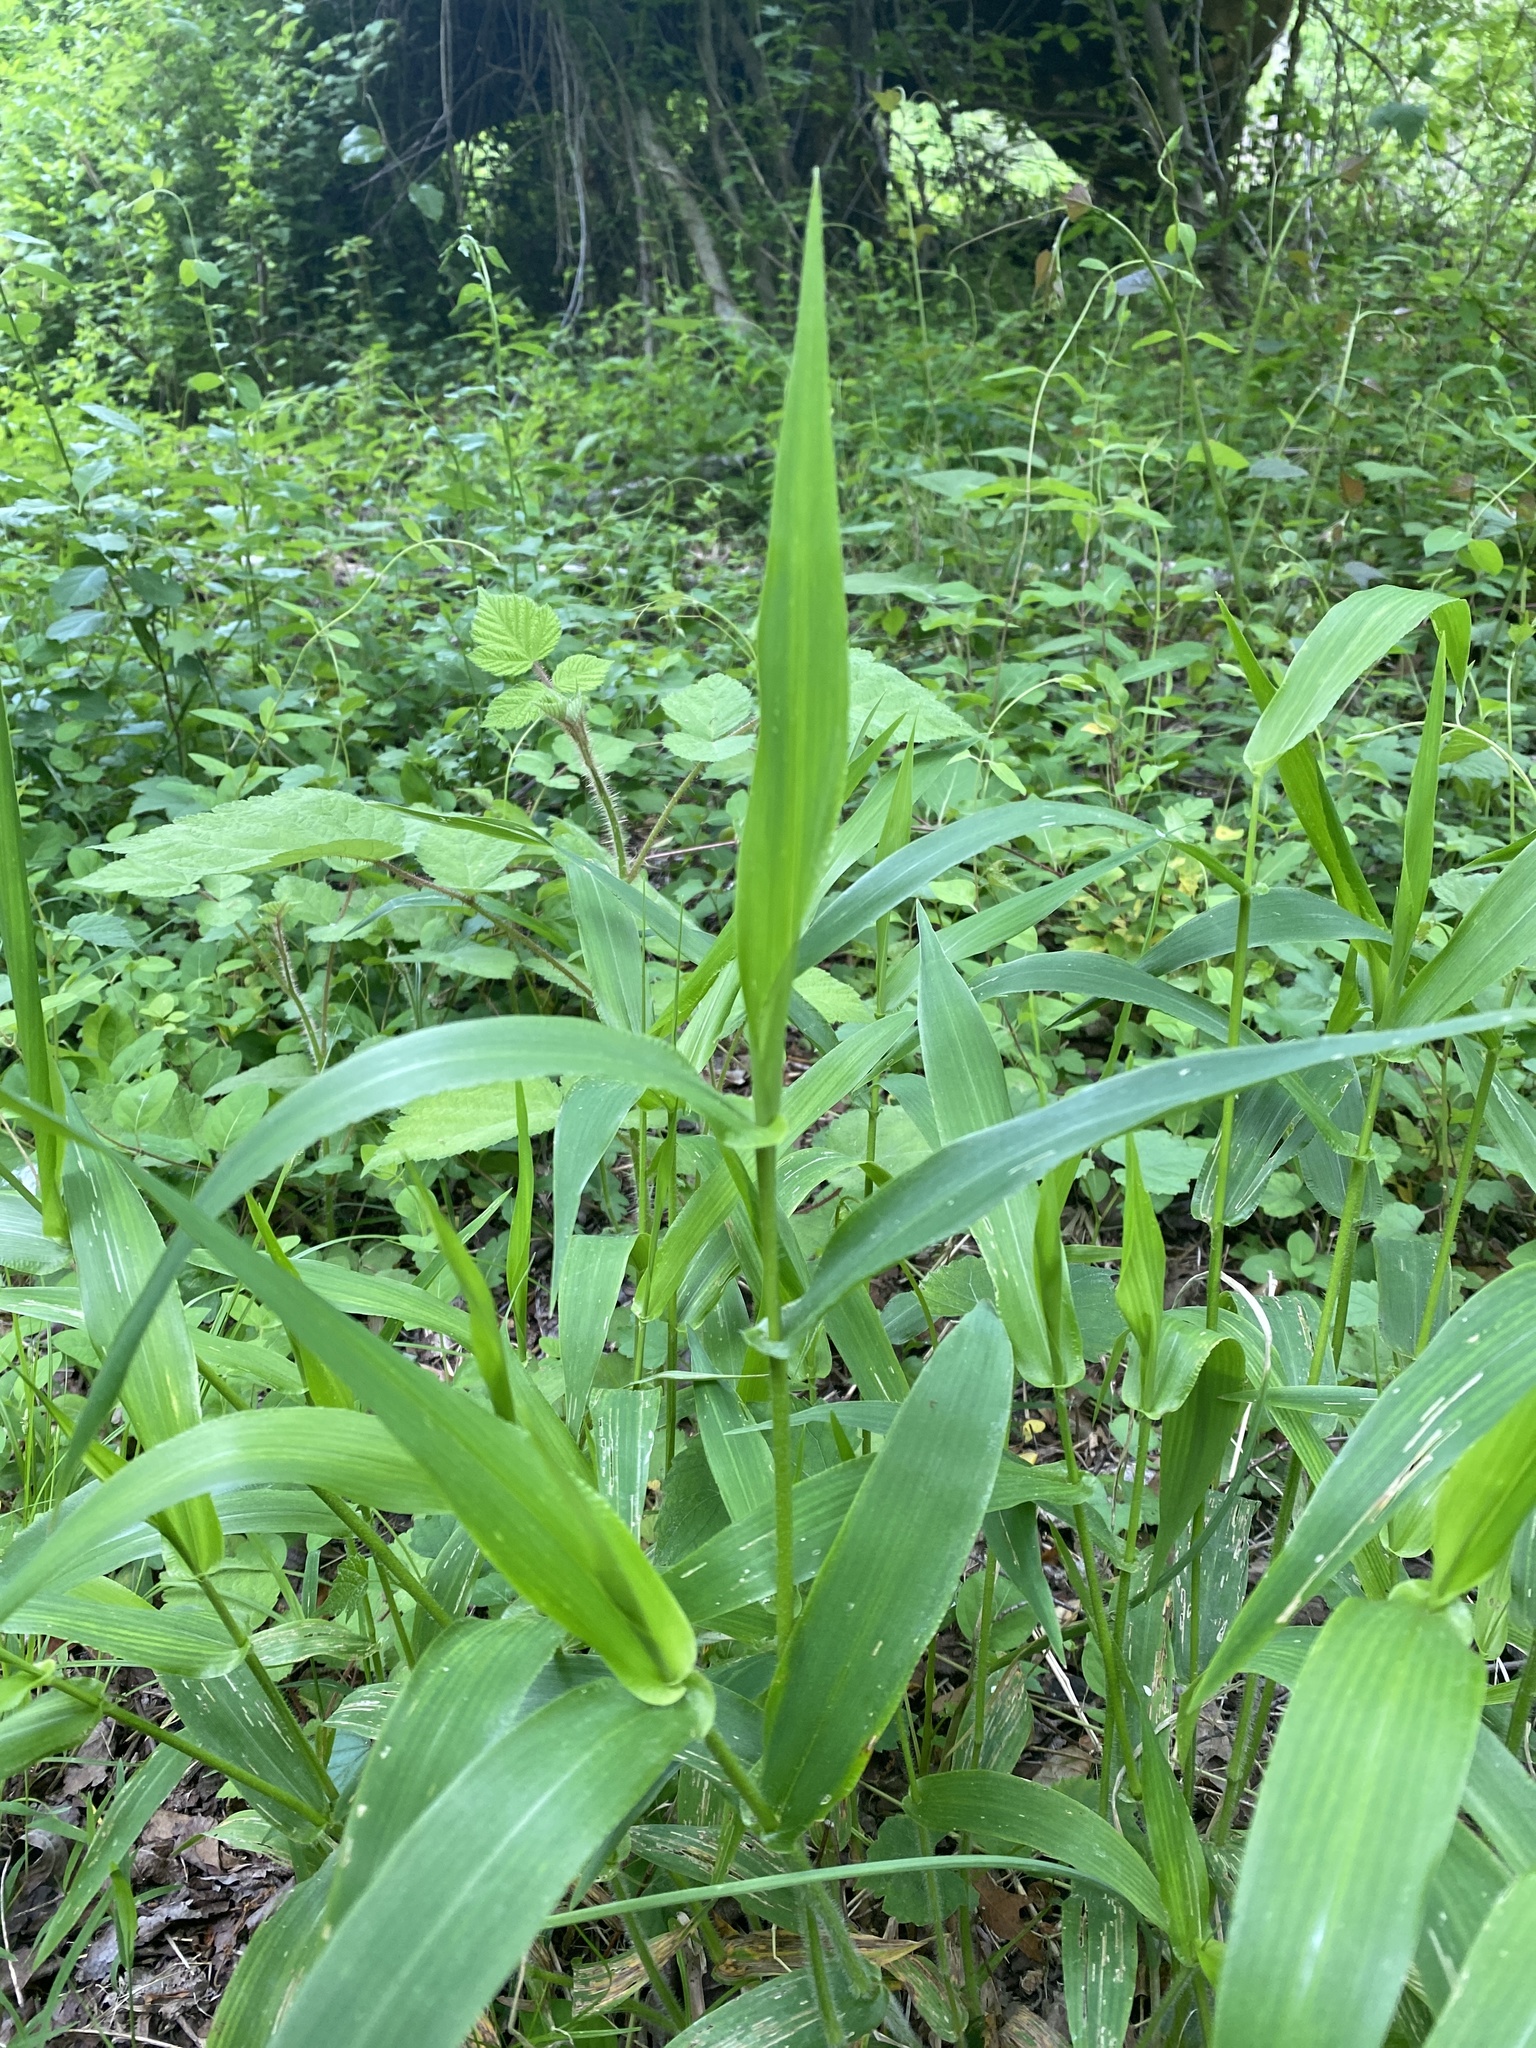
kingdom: Plantae
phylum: Tracheophyta
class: Liliopsida
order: Poales
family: Poaceae
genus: Dichanthelium
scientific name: Dichanthelium clandestinum
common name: Deer-tongue grass
